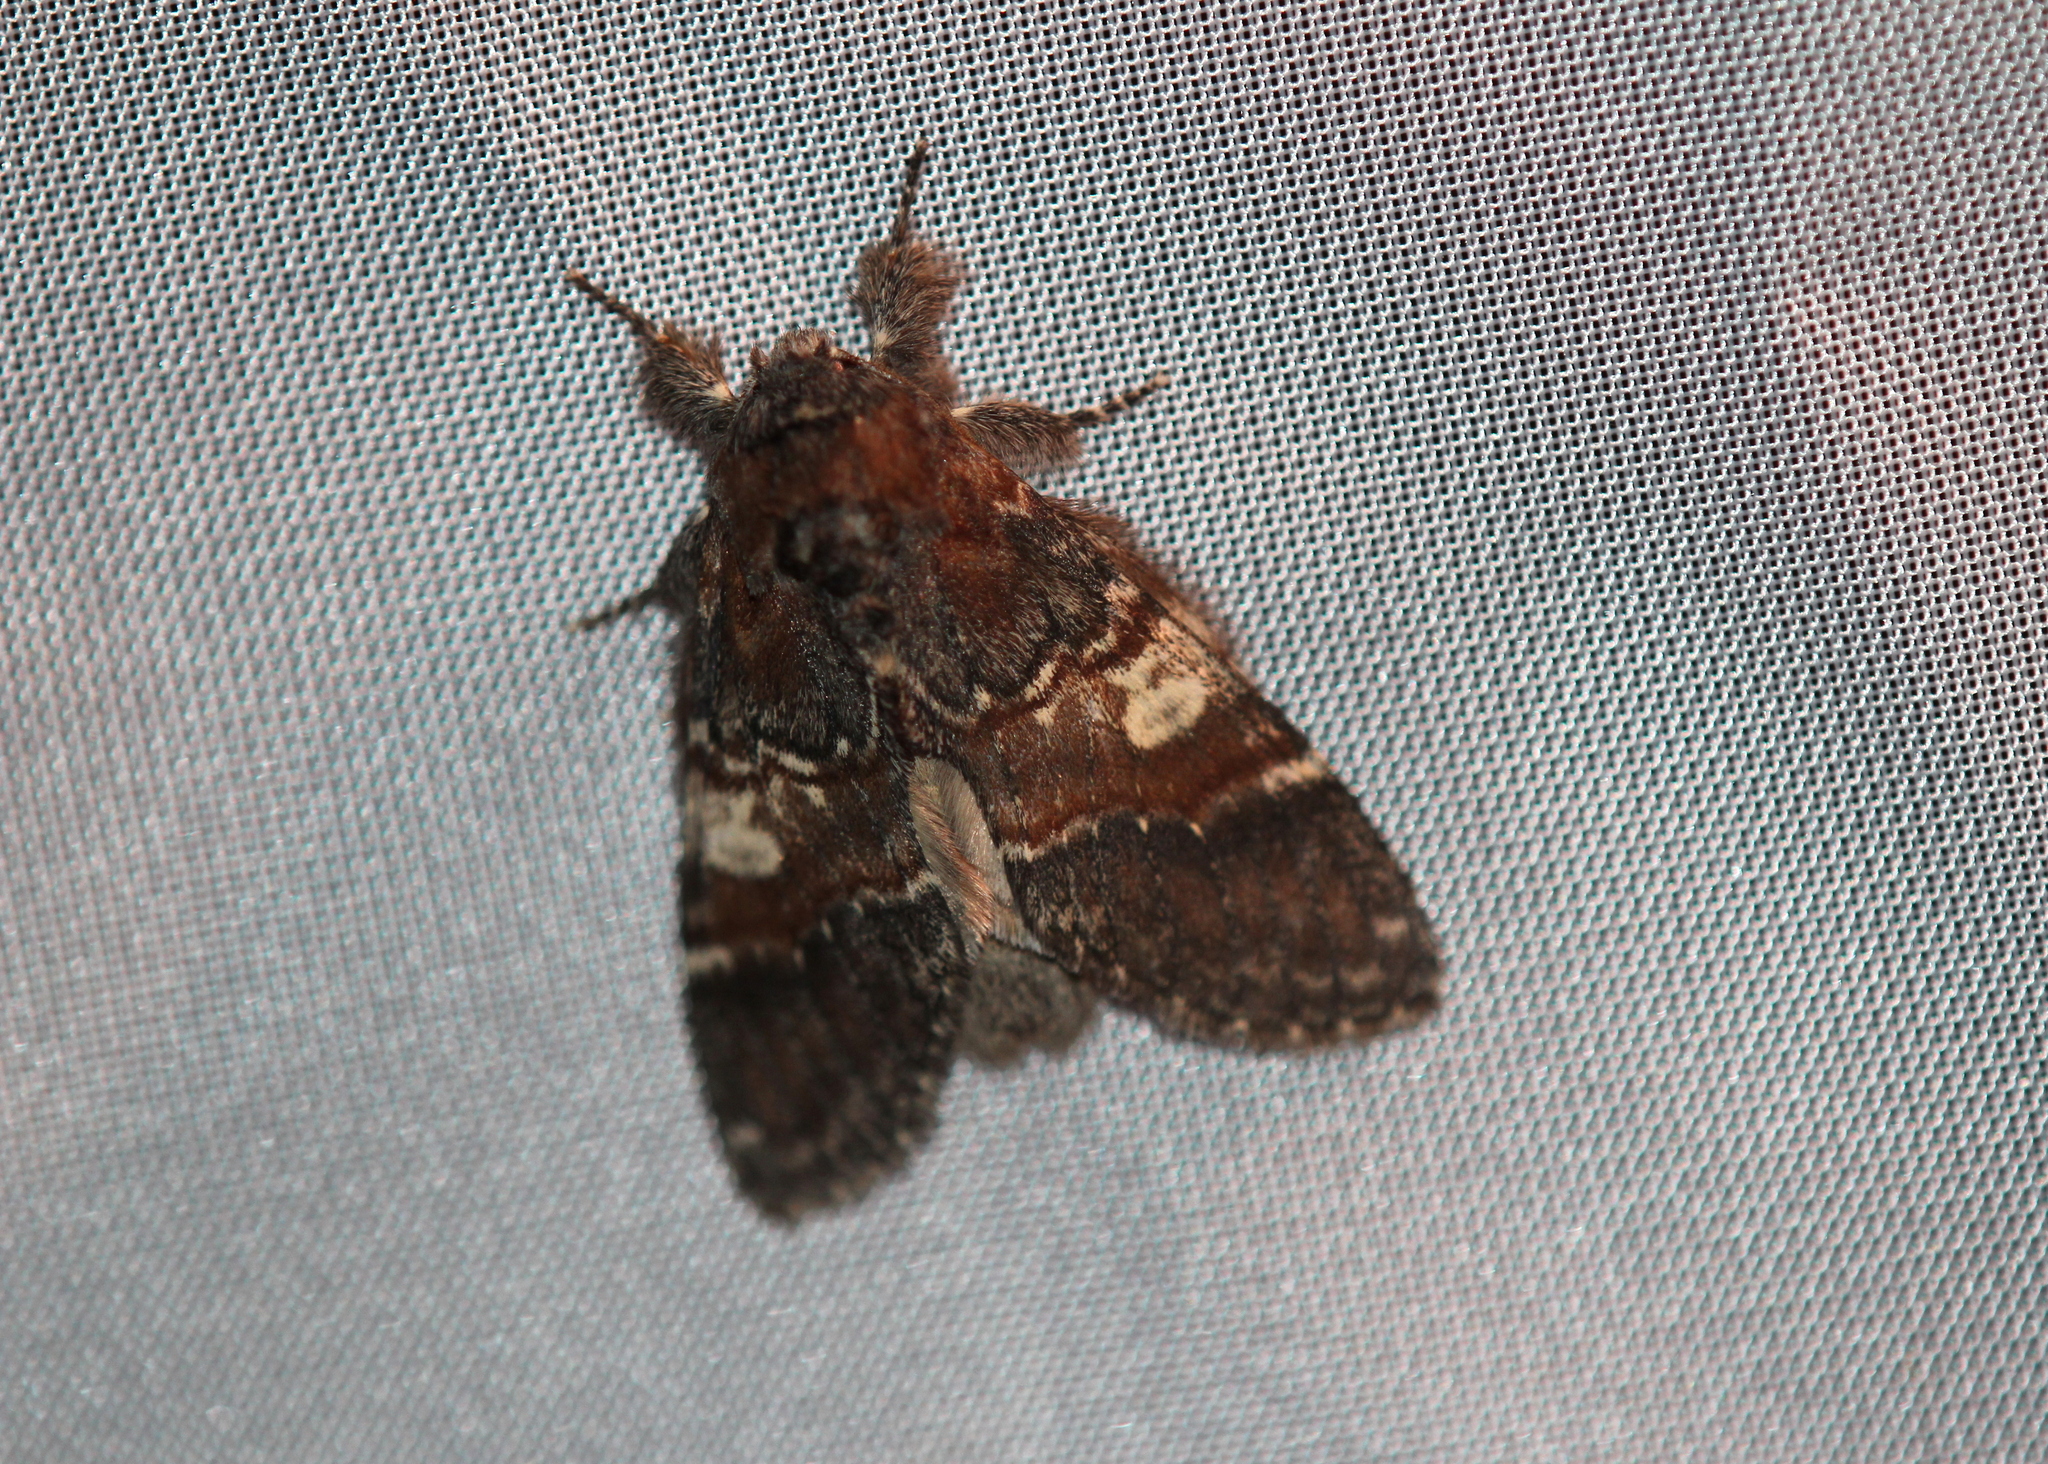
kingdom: Animalia
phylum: Arthropoda
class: Insecta
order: Lepidoptera
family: Notodontidae
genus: Peridea
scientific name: Peridea ferruginea
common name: Chocolate prominent
